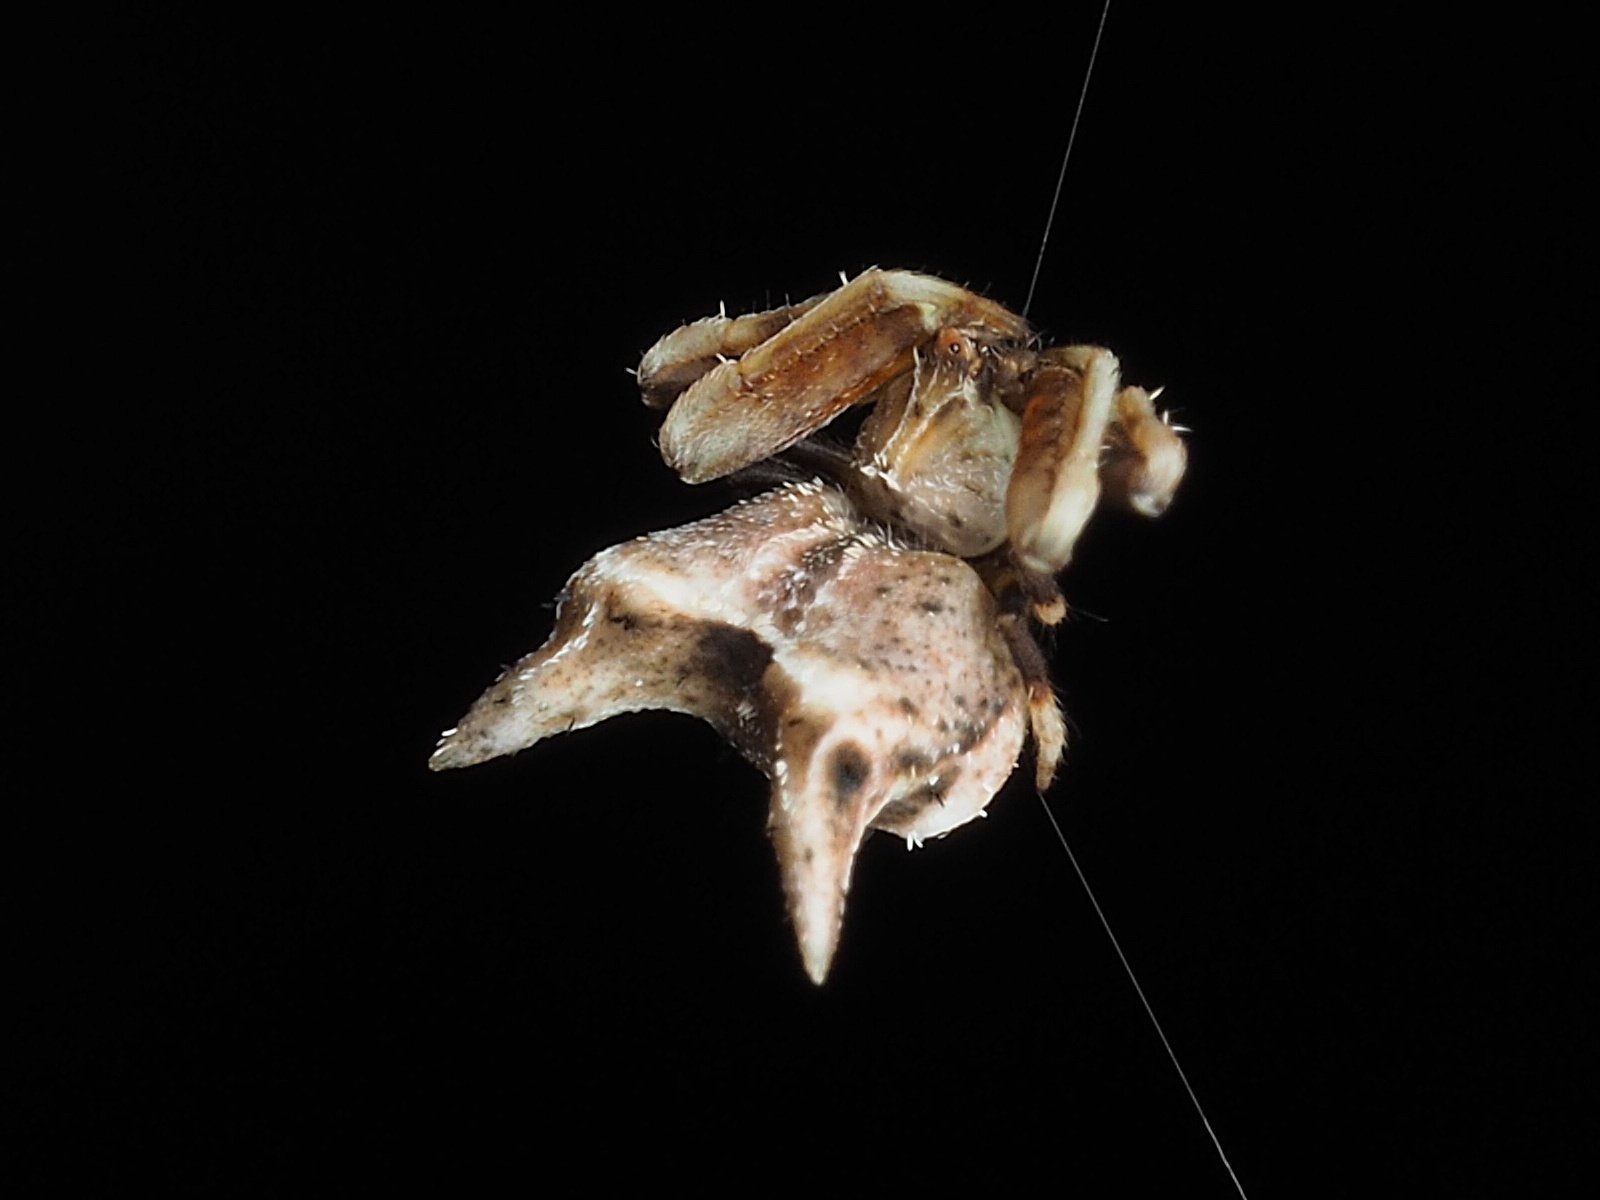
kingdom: Animalia
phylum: Arthropoda
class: Arachnida
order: Araneae
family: Araneidae
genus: Celaenia
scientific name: Celaenia distincta
